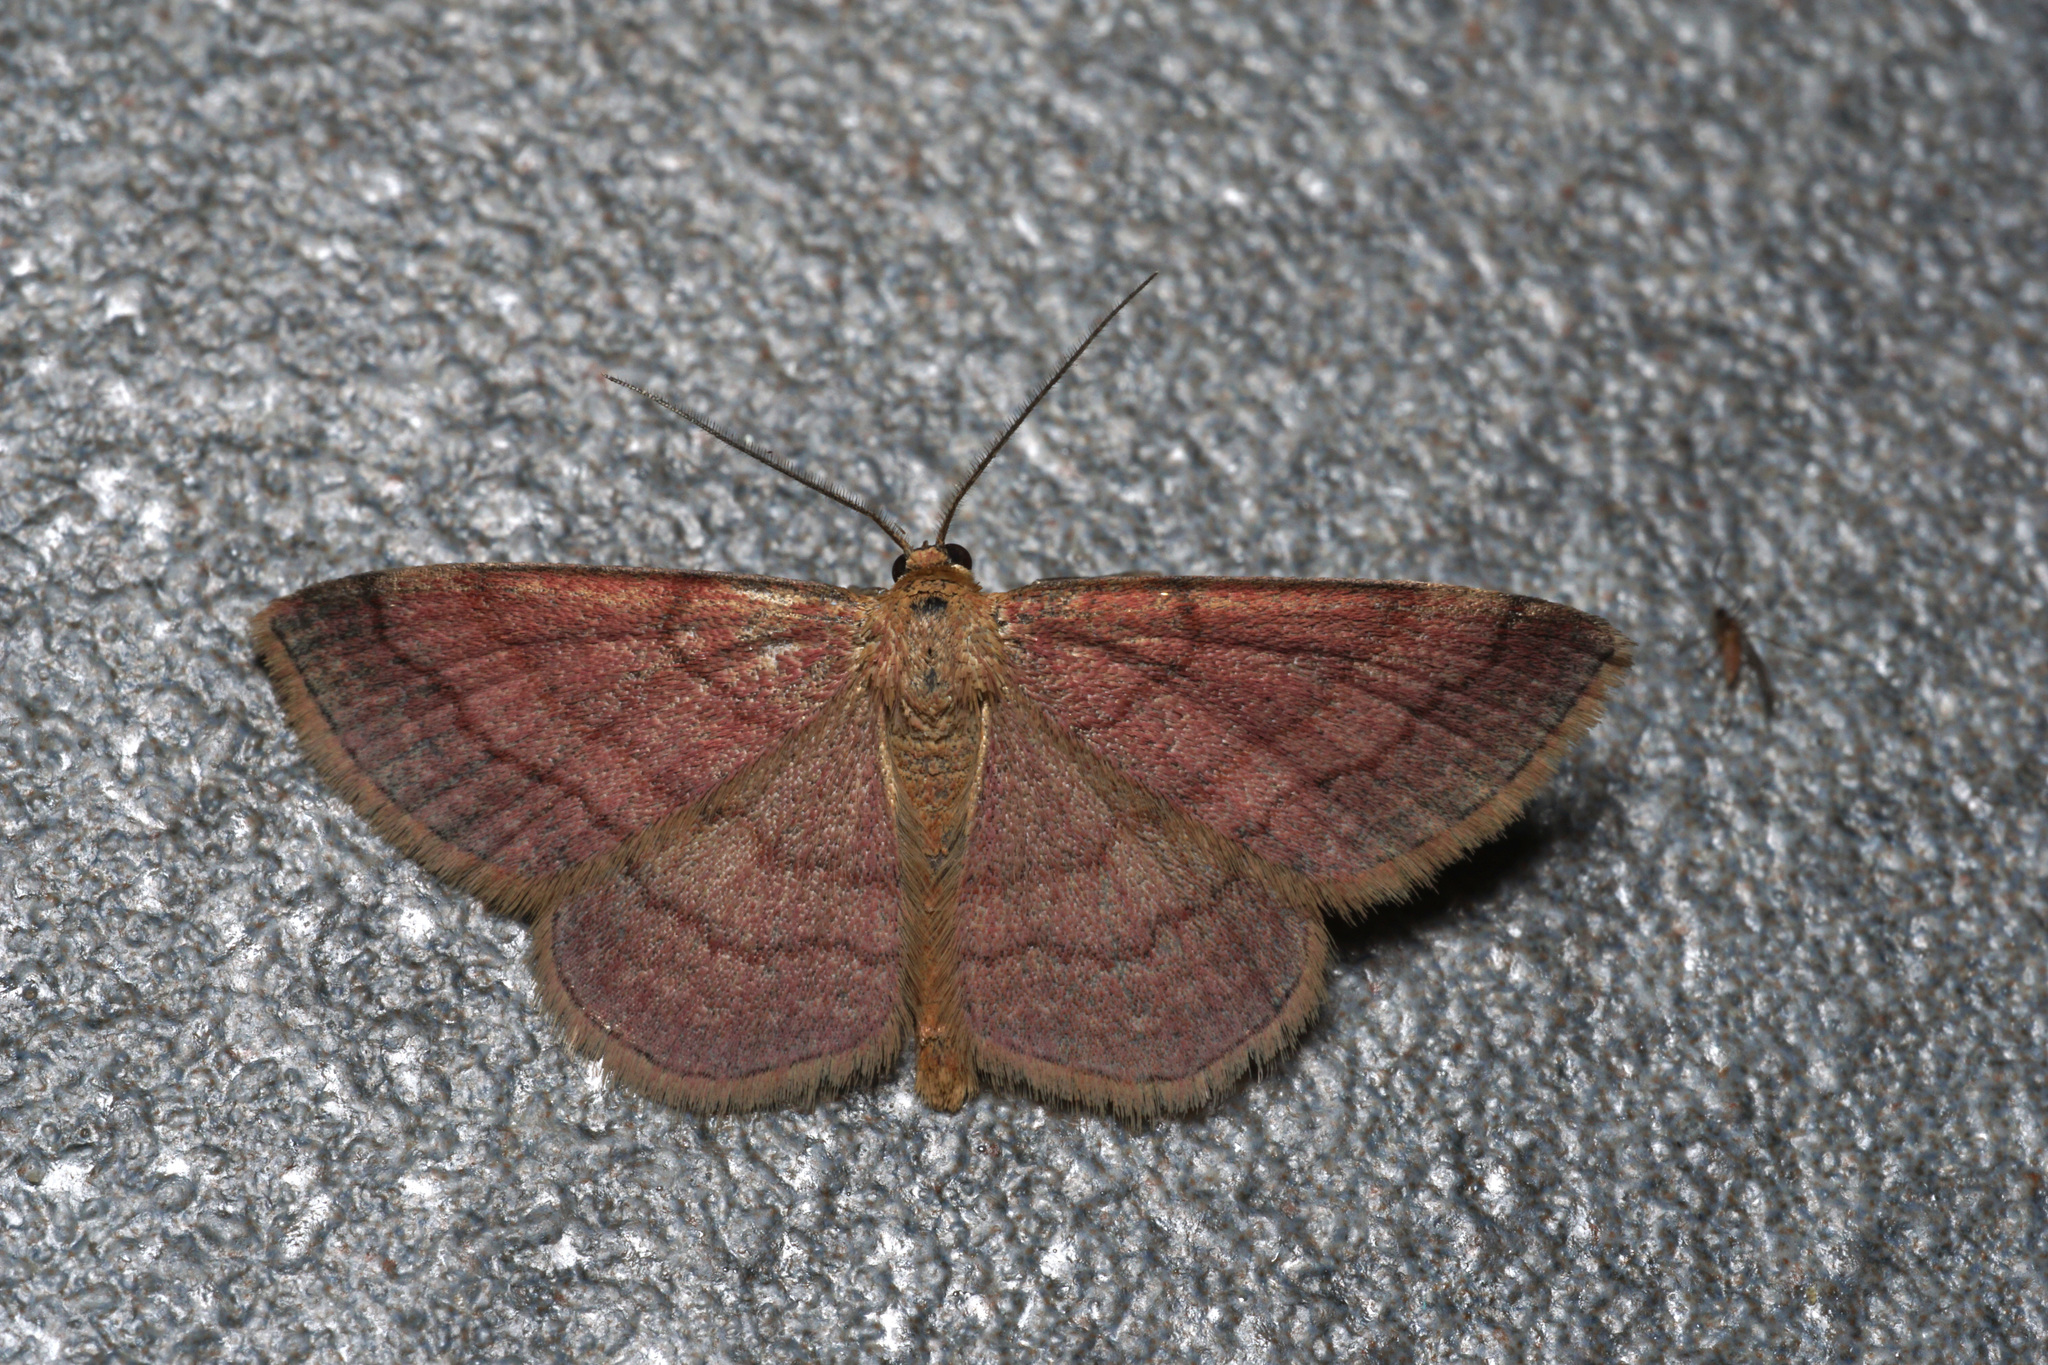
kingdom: Animalia
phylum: Arthropoda
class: Insecta
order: Lepidoptera
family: Geometridae
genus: Scopula
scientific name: Scopula rubiginata
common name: Tawny wave
